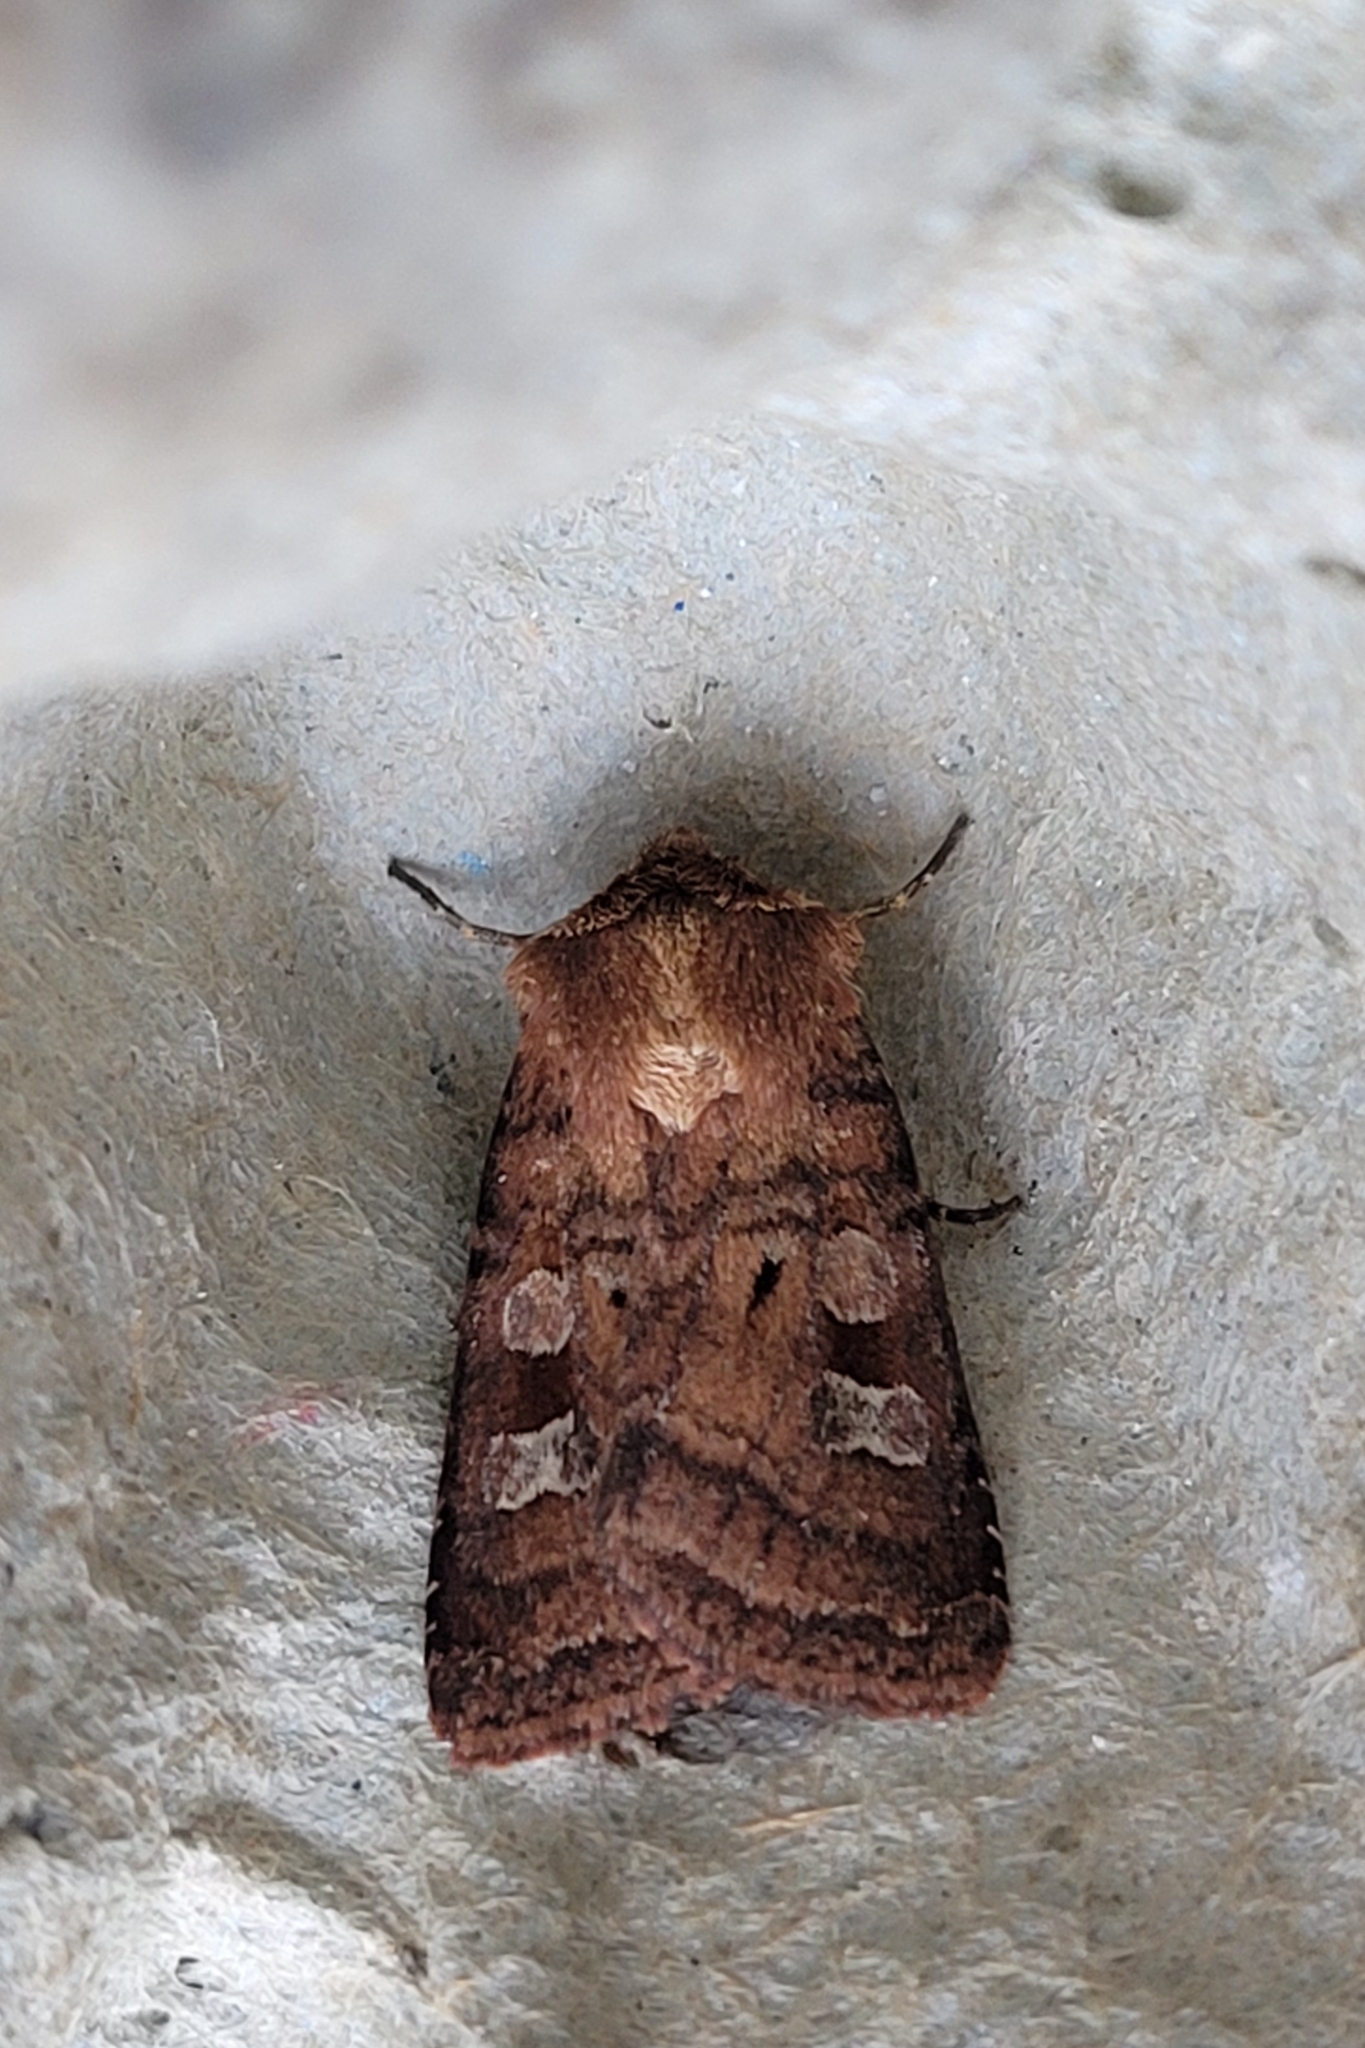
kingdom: Animalia
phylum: Arthropoda
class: Insecta
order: Lepidoptera
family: Noctuidae
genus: Diarsia
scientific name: Diarsia rubi
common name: Small square-spot
